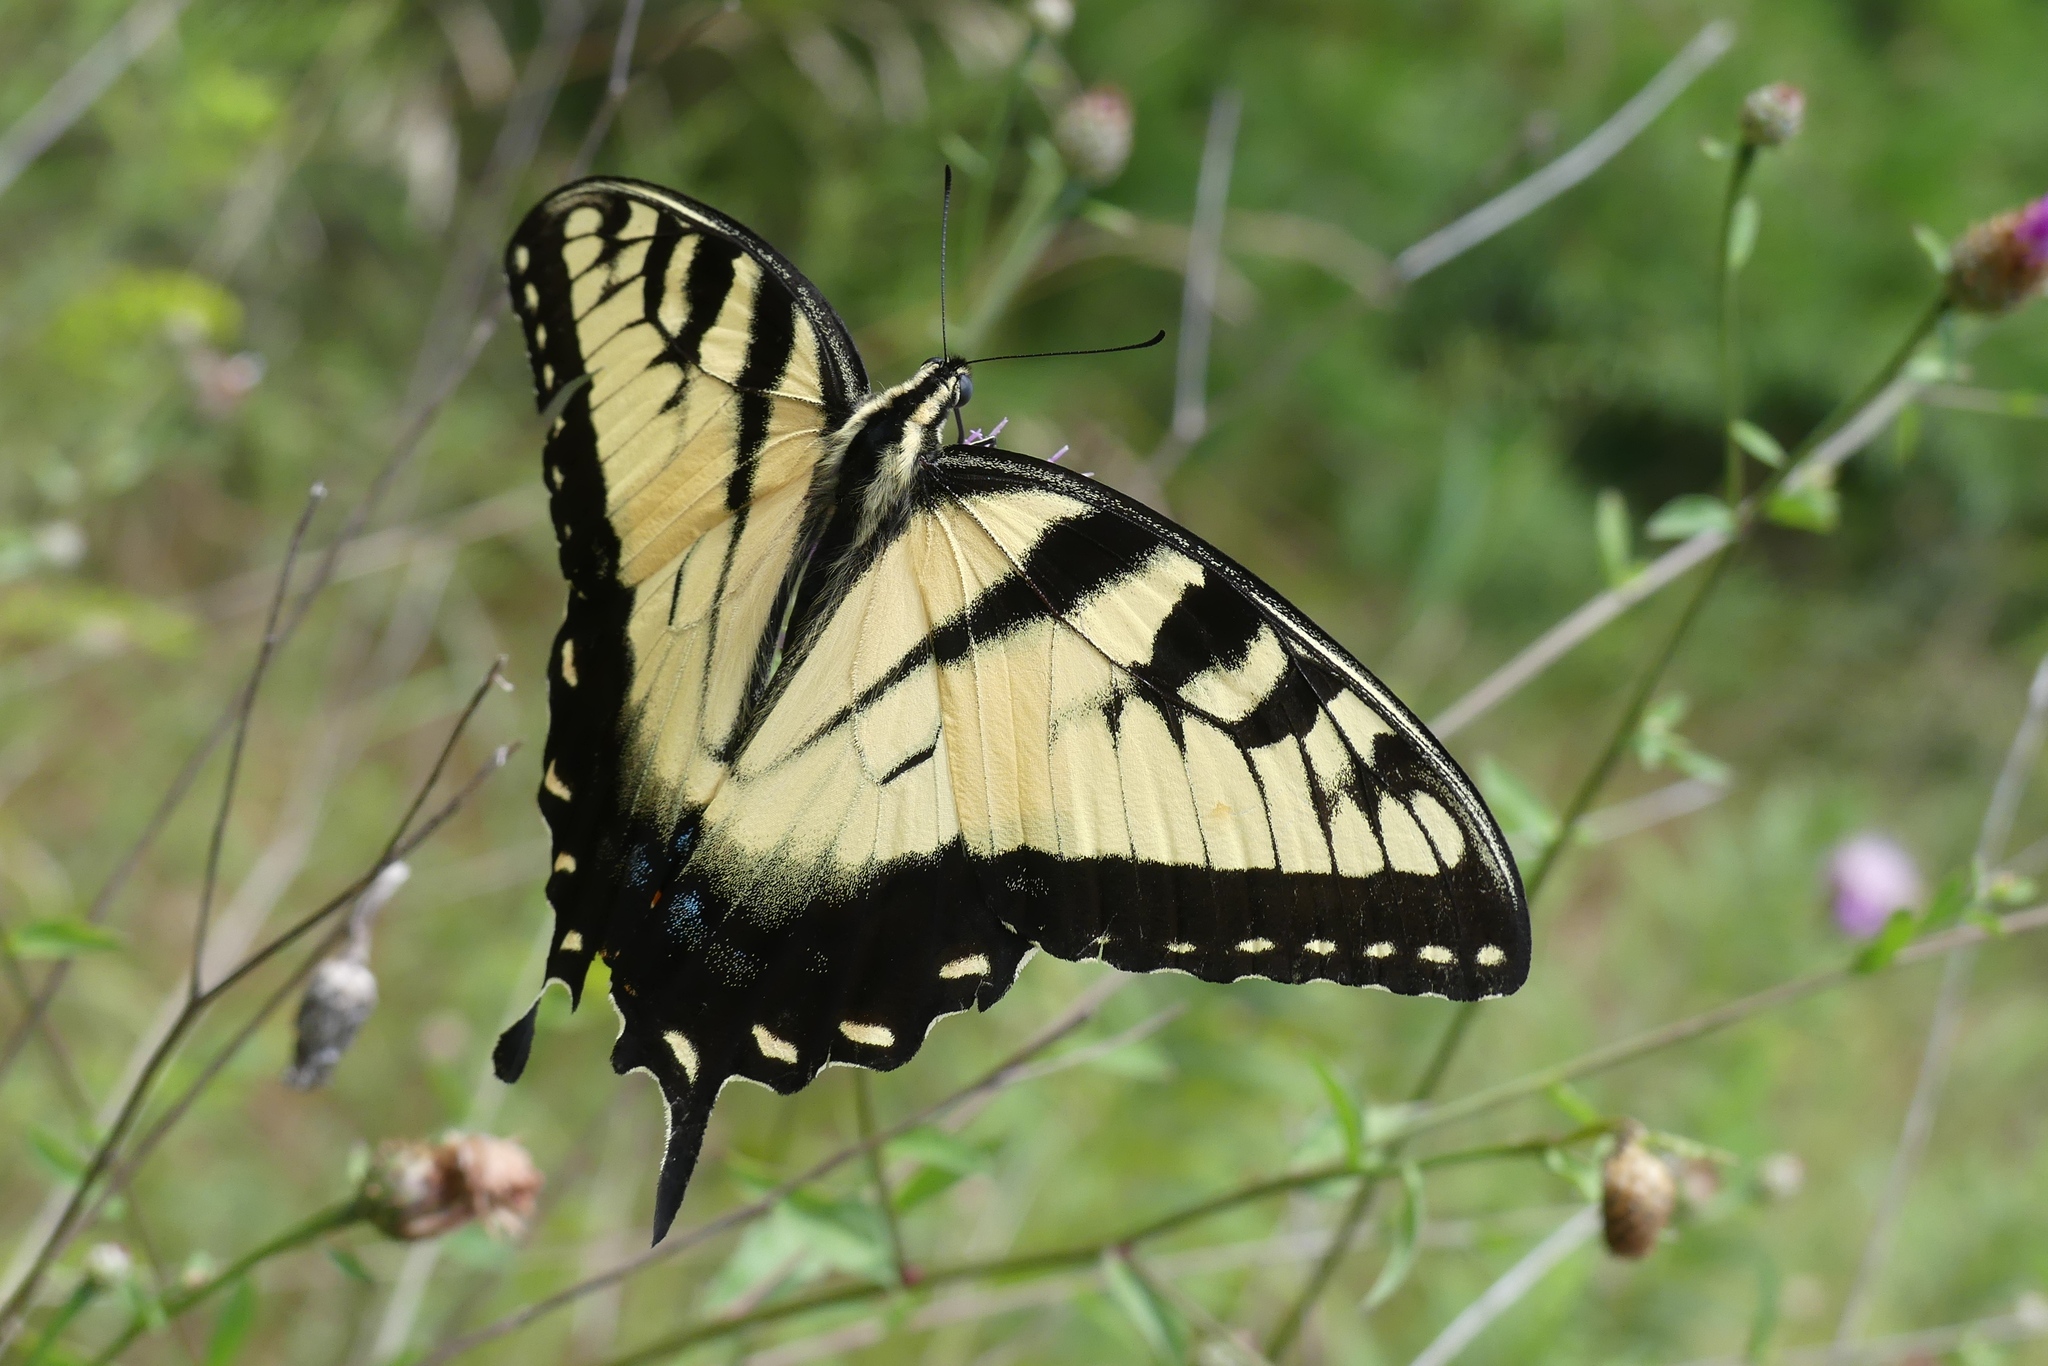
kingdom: Animalia
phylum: Arthropoda
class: Insecta
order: Lepidoptera
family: Papilionidae
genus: Papilio
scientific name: Papilio glaucus
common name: Tiger swallowtail
